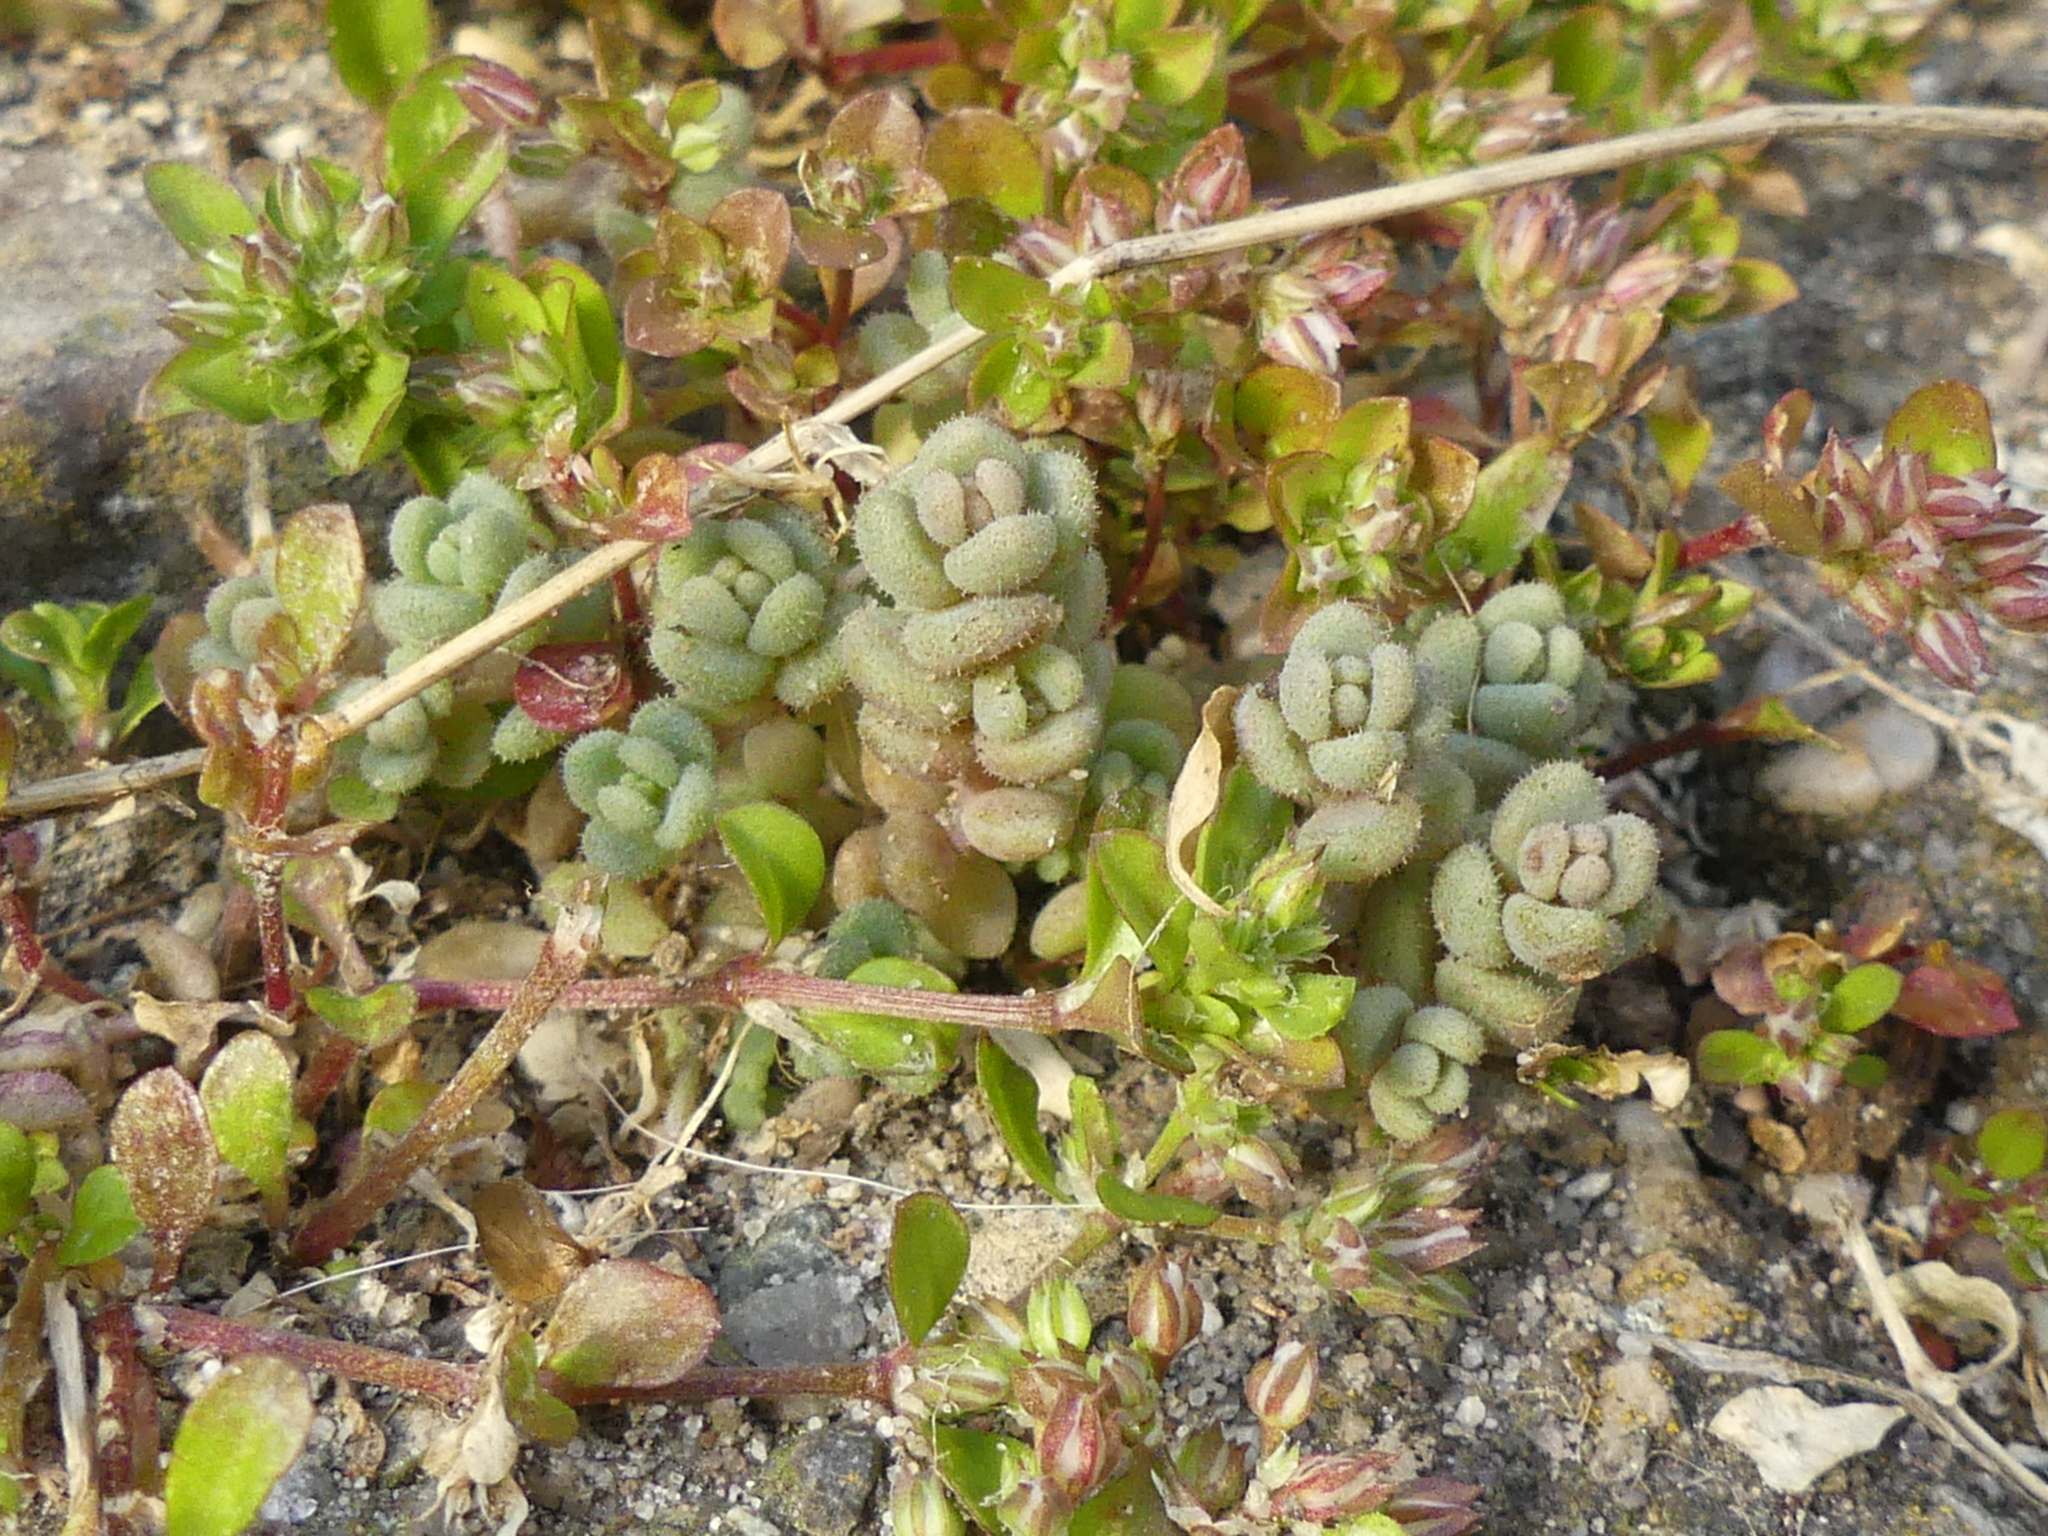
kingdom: Plantae
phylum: Tracheophyta
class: Magnoliopsida
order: Saxifragales
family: Crassulaceae
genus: Sedum
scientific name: Sedum dasyphyllum
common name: Thick-leaf stonecrop
